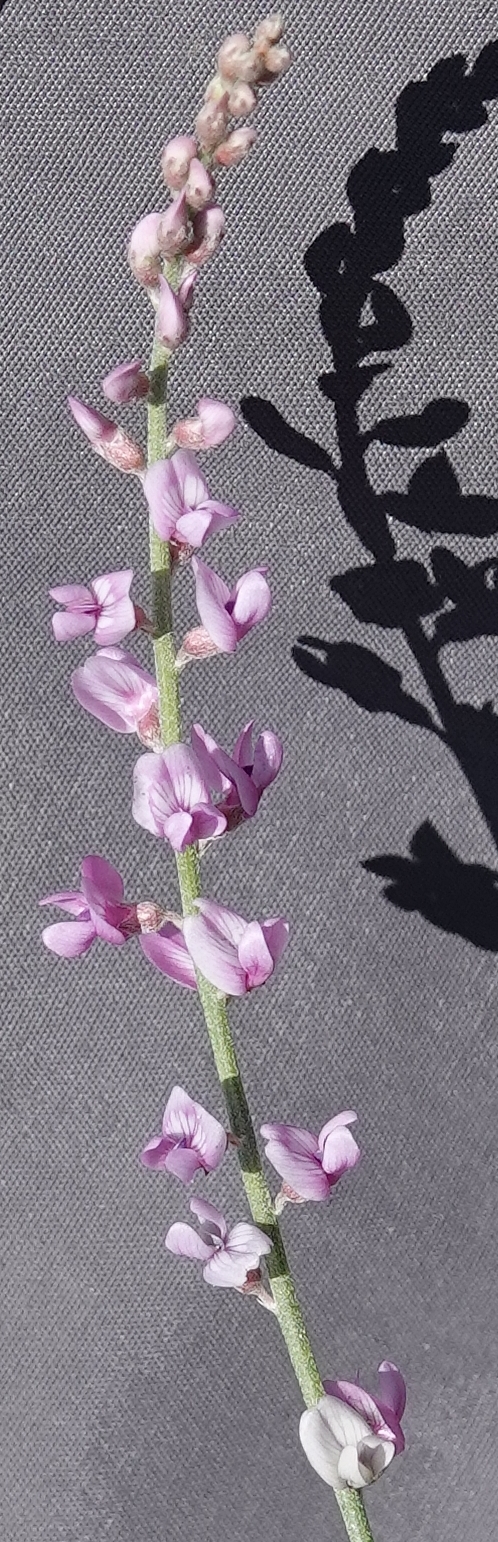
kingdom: Plantae
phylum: Tracheophyta
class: Magnoliopsida
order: Fabales
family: Fabaceae
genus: Astragalus
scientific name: Astragalus gracilis
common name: Slender milk-vetch
